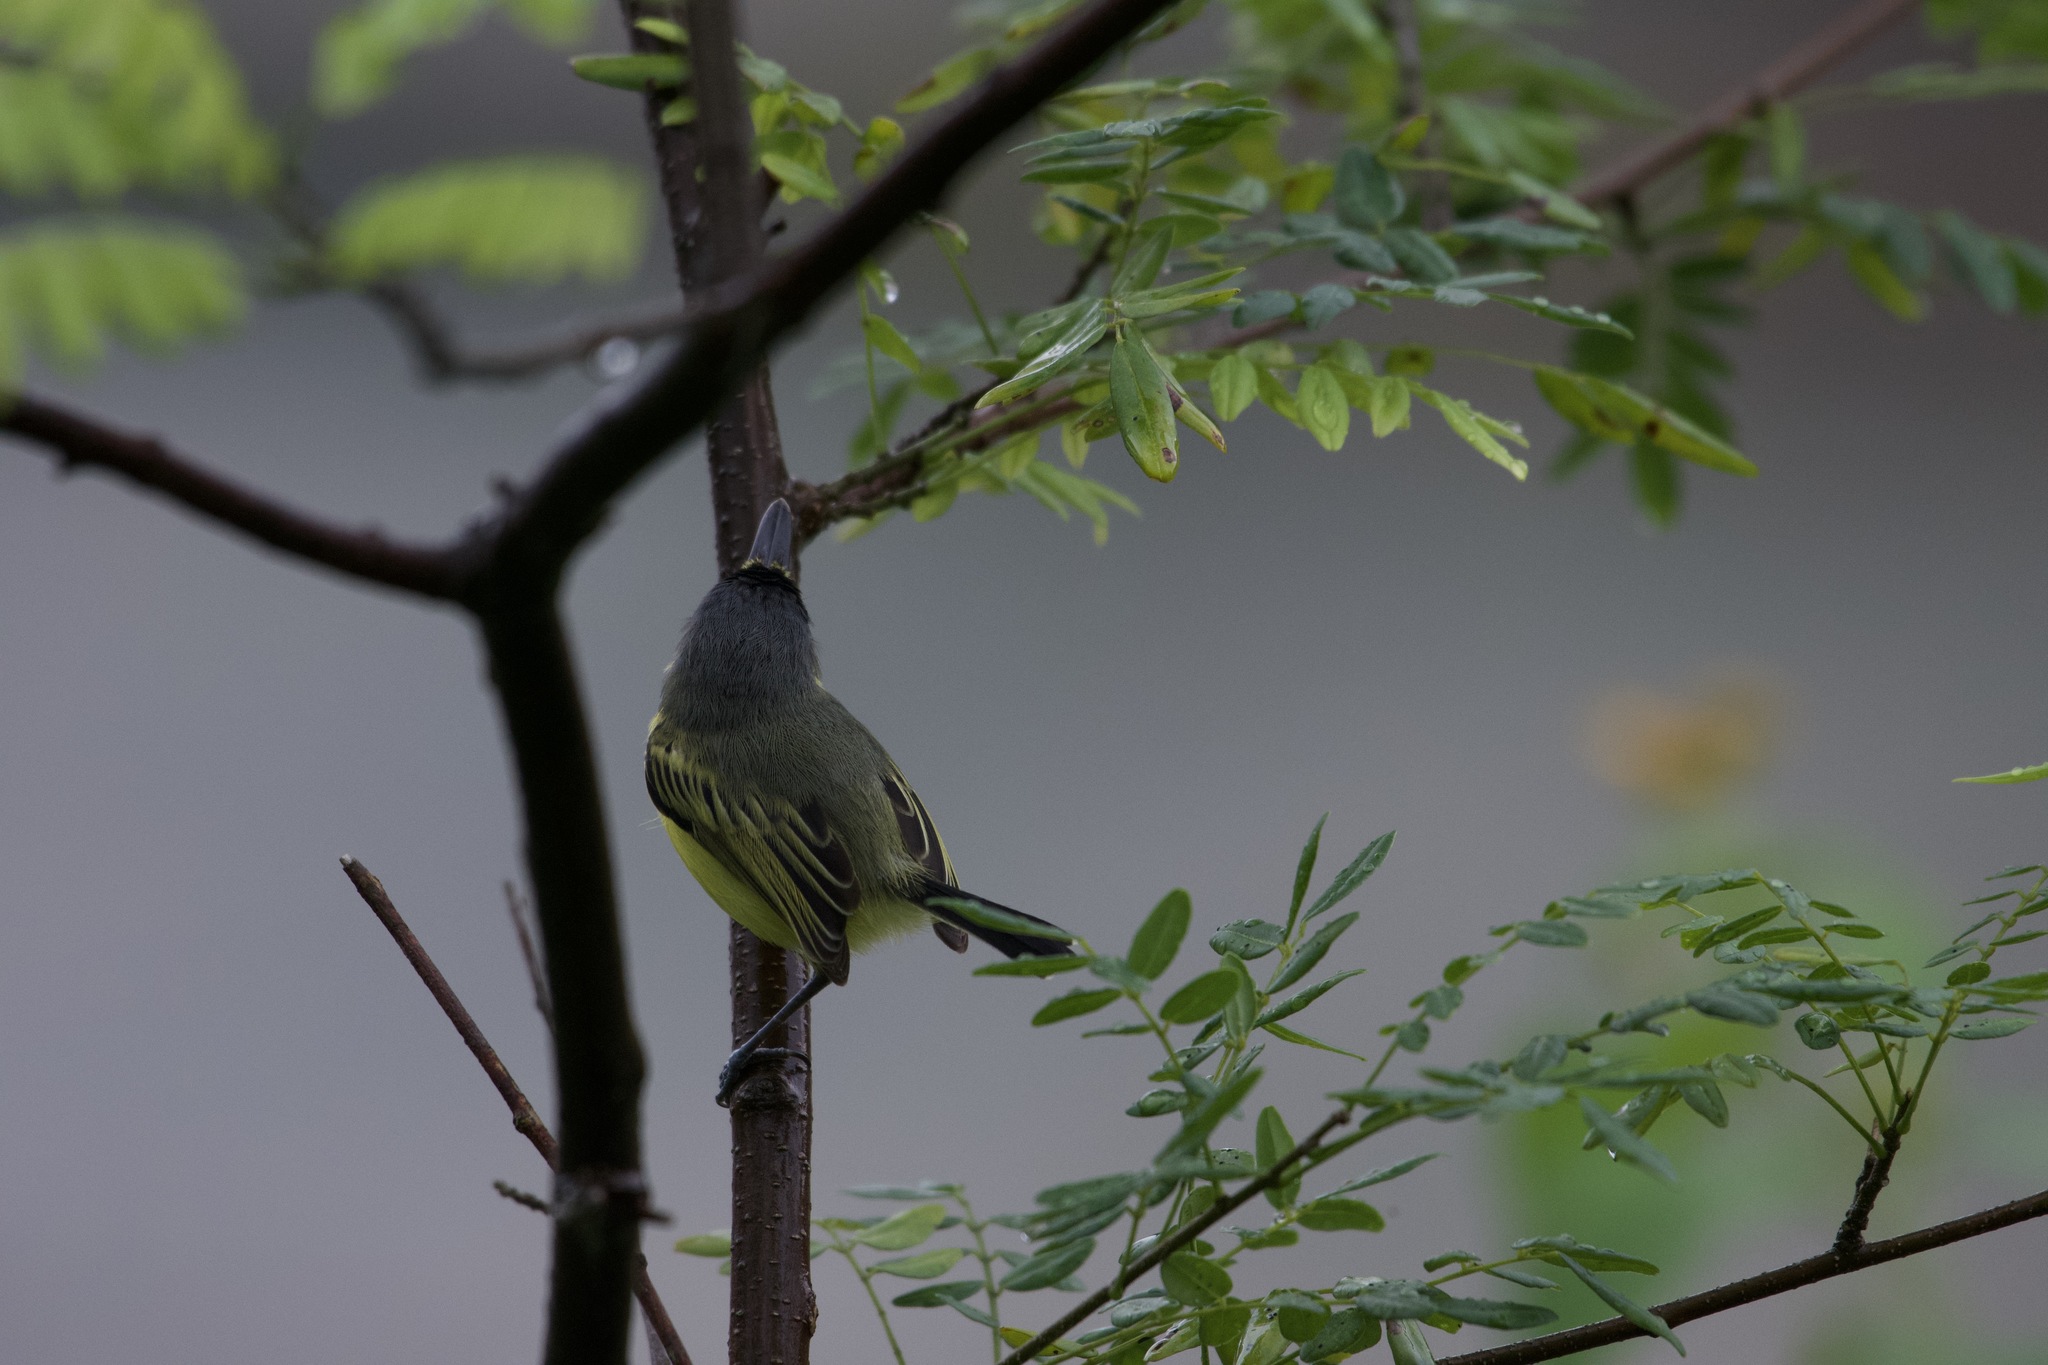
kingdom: Animalia
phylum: Chordata
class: Aves
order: Passeriformes
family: Tyrannidae
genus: Todirostrum
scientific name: Todirostrum cinereum
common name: Common tody-flycatcher
